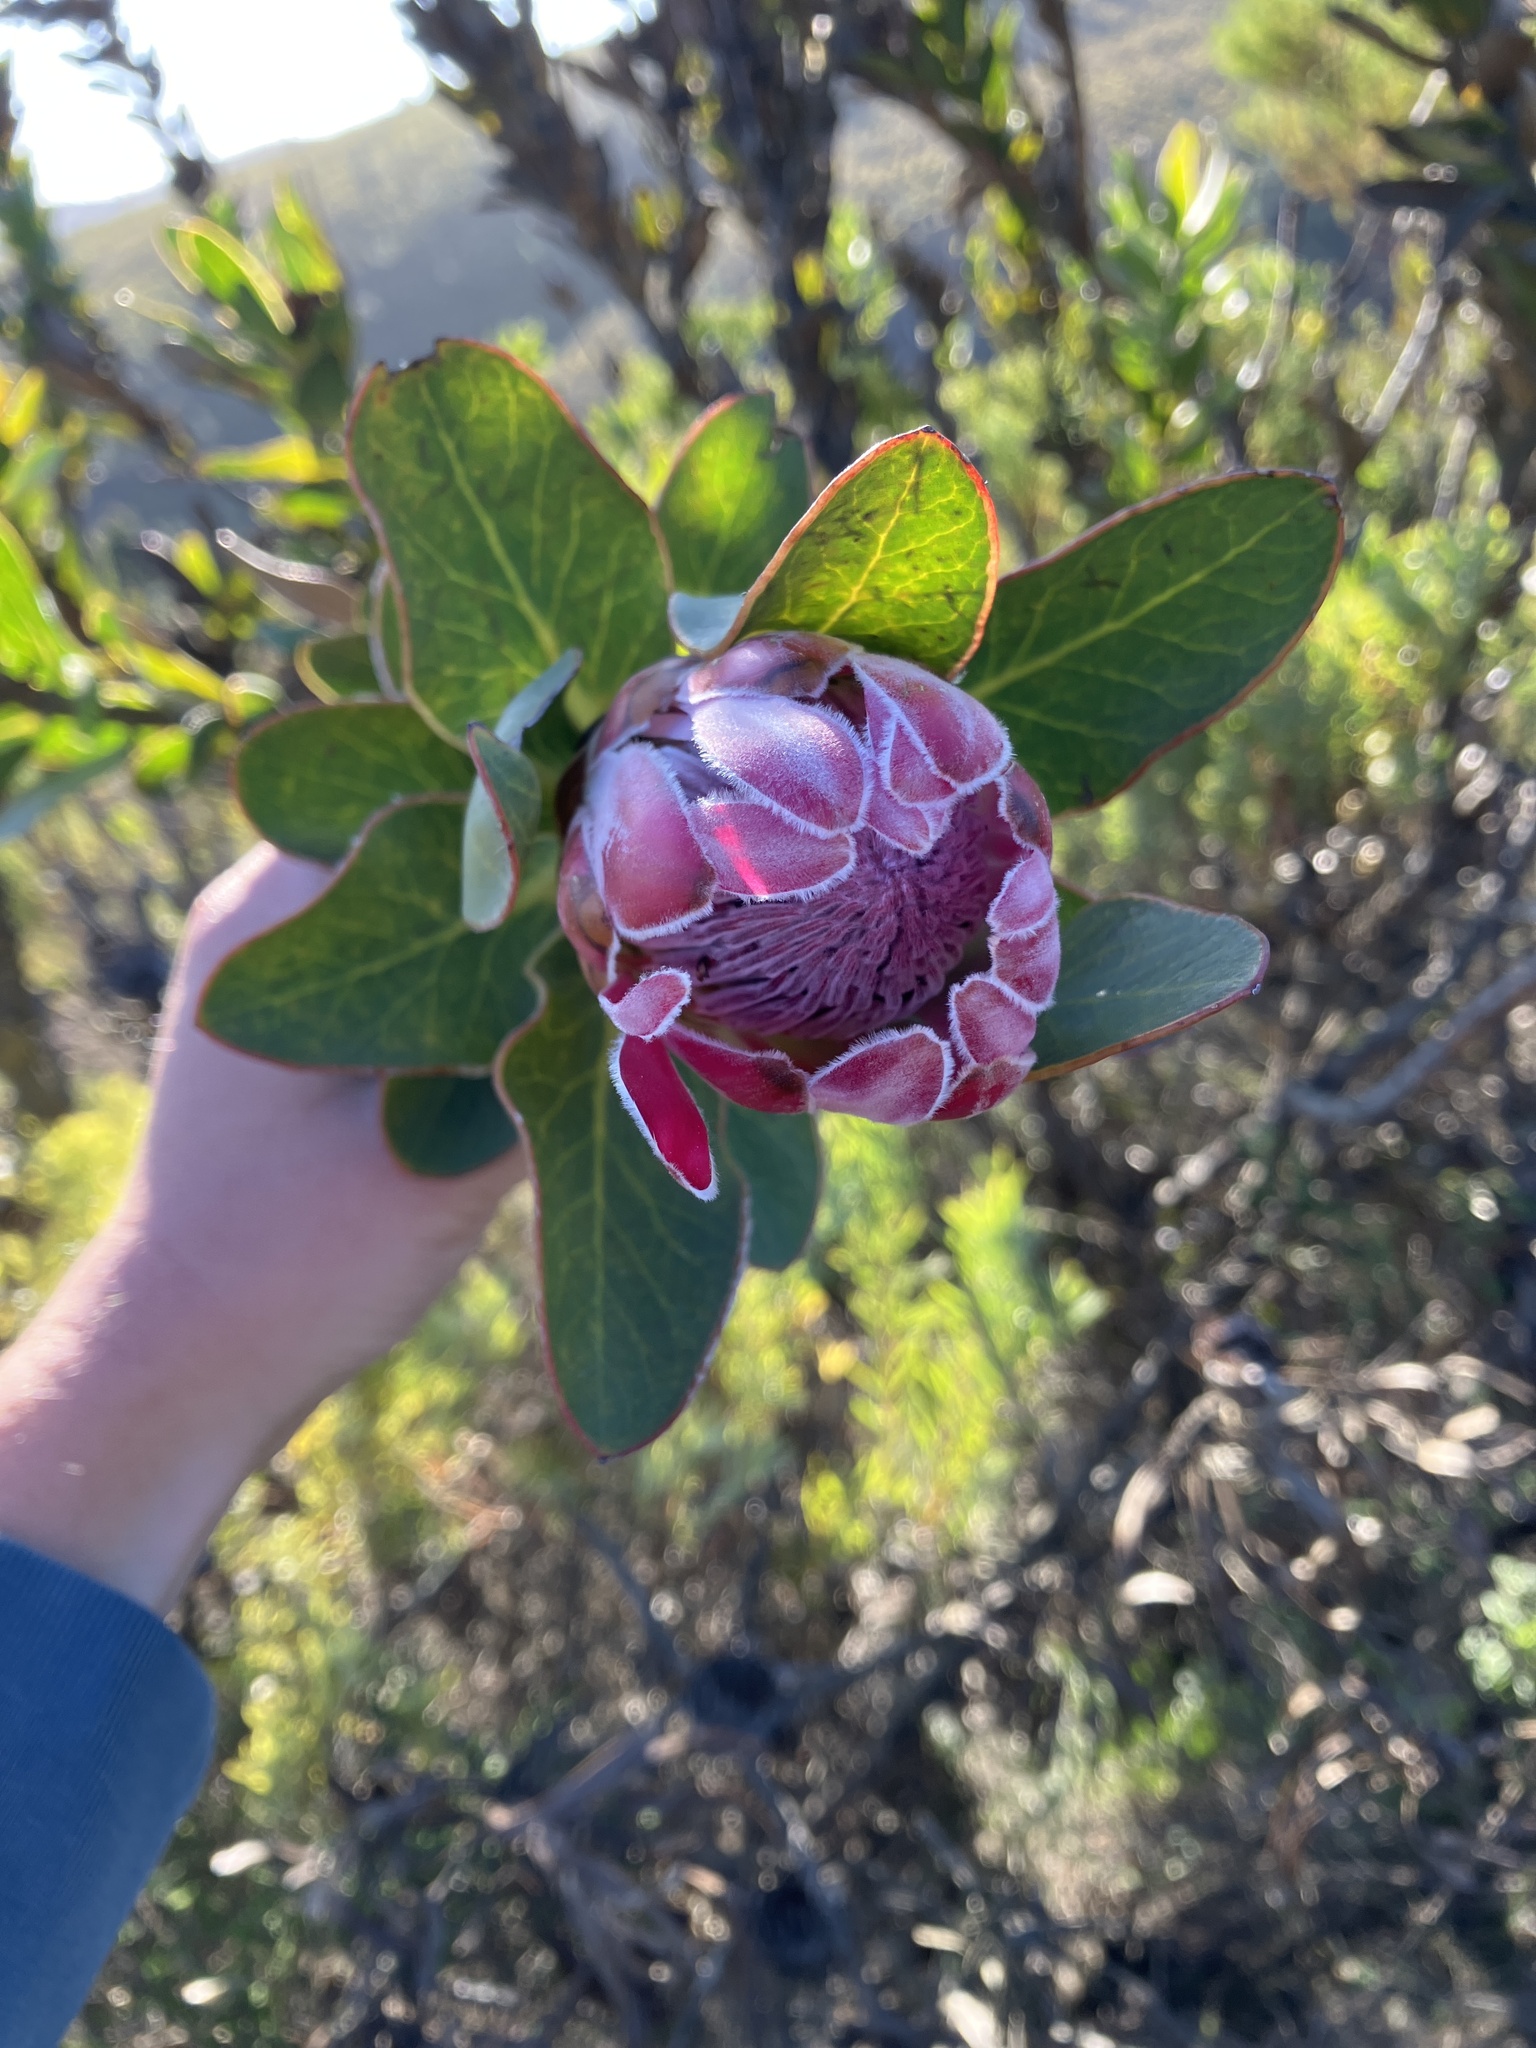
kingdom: Plantae
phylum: Tracheophyta
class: Magnoliopsida
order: Proteales
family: Proteaceae
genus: Protea
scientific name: Protea compacta
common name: Bot river protea
